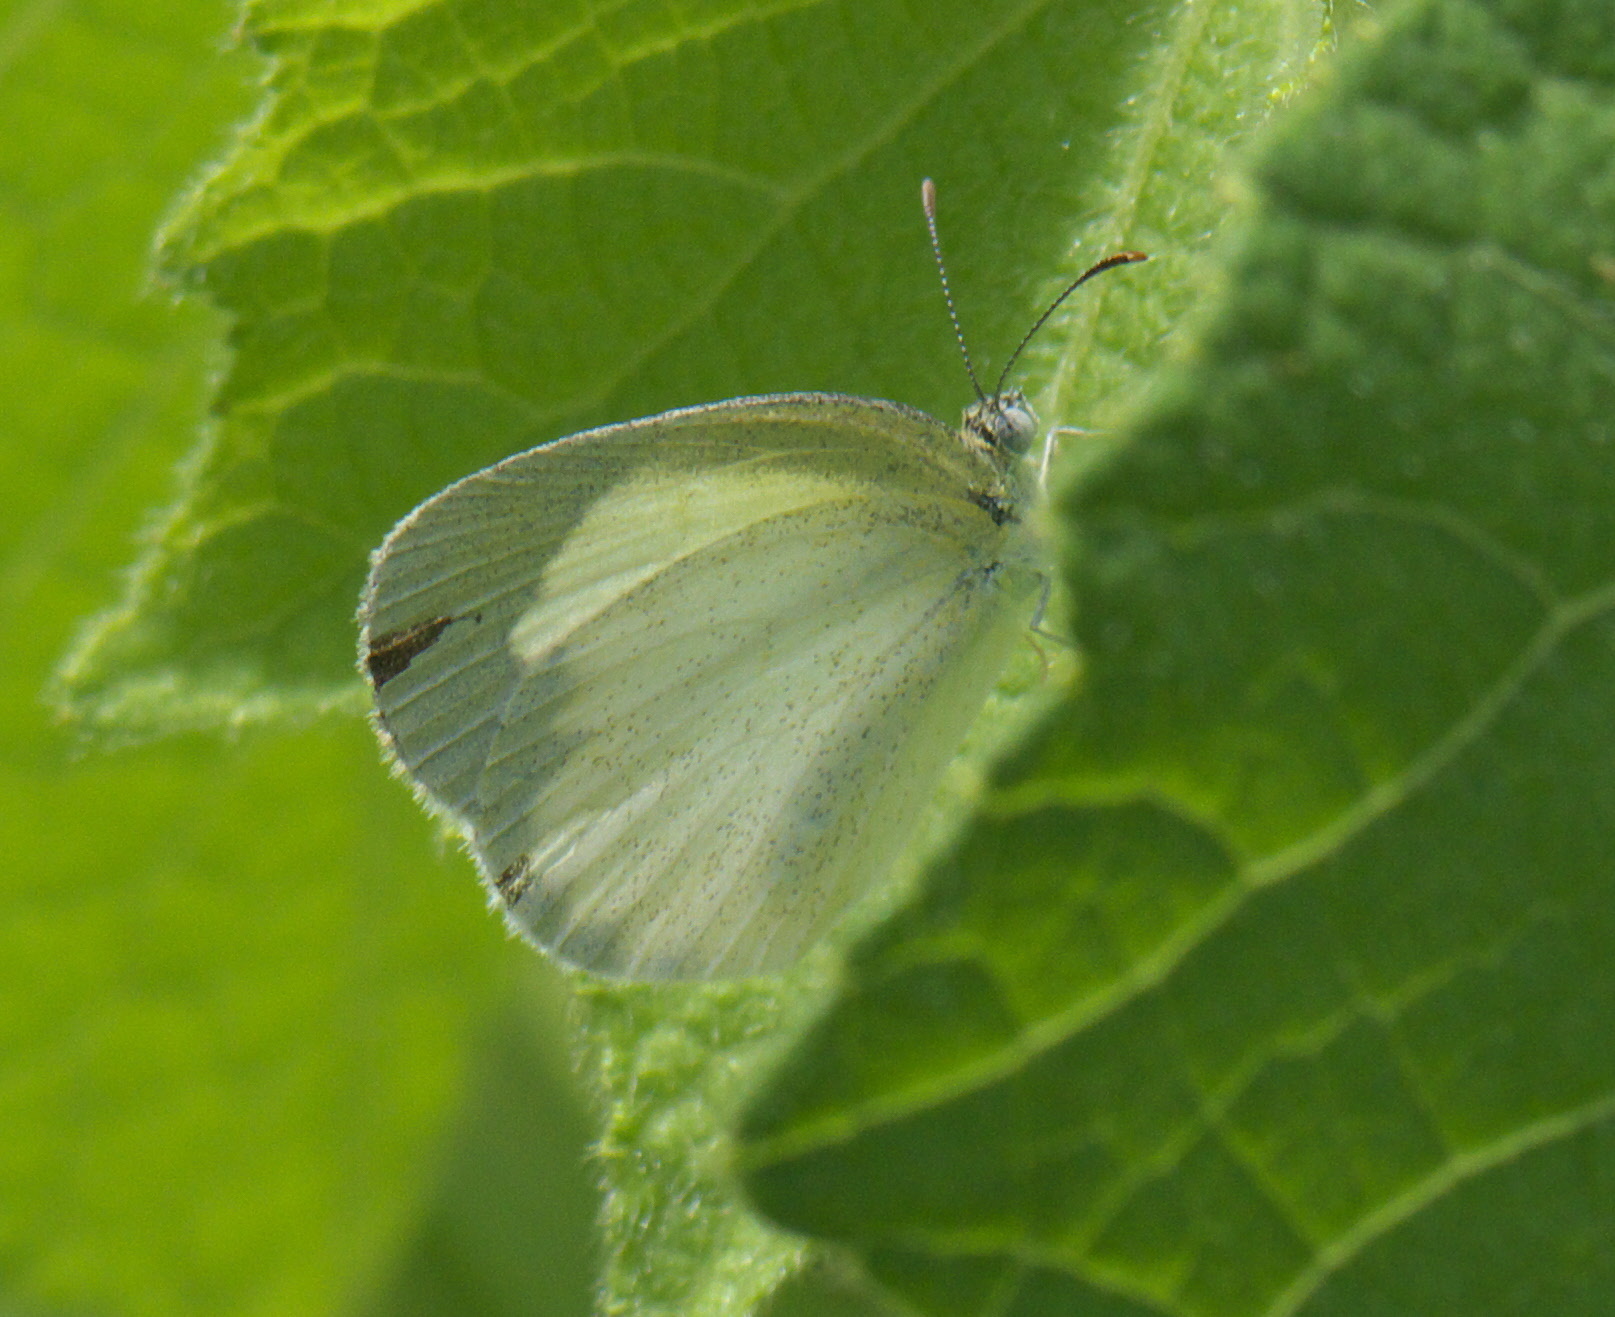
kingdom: Animalia
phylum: Arthropoda
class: Insecta
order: Lepidoptera
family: Pieridae
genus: Eurema
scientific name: Eurema daira
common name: Barred sulphur
